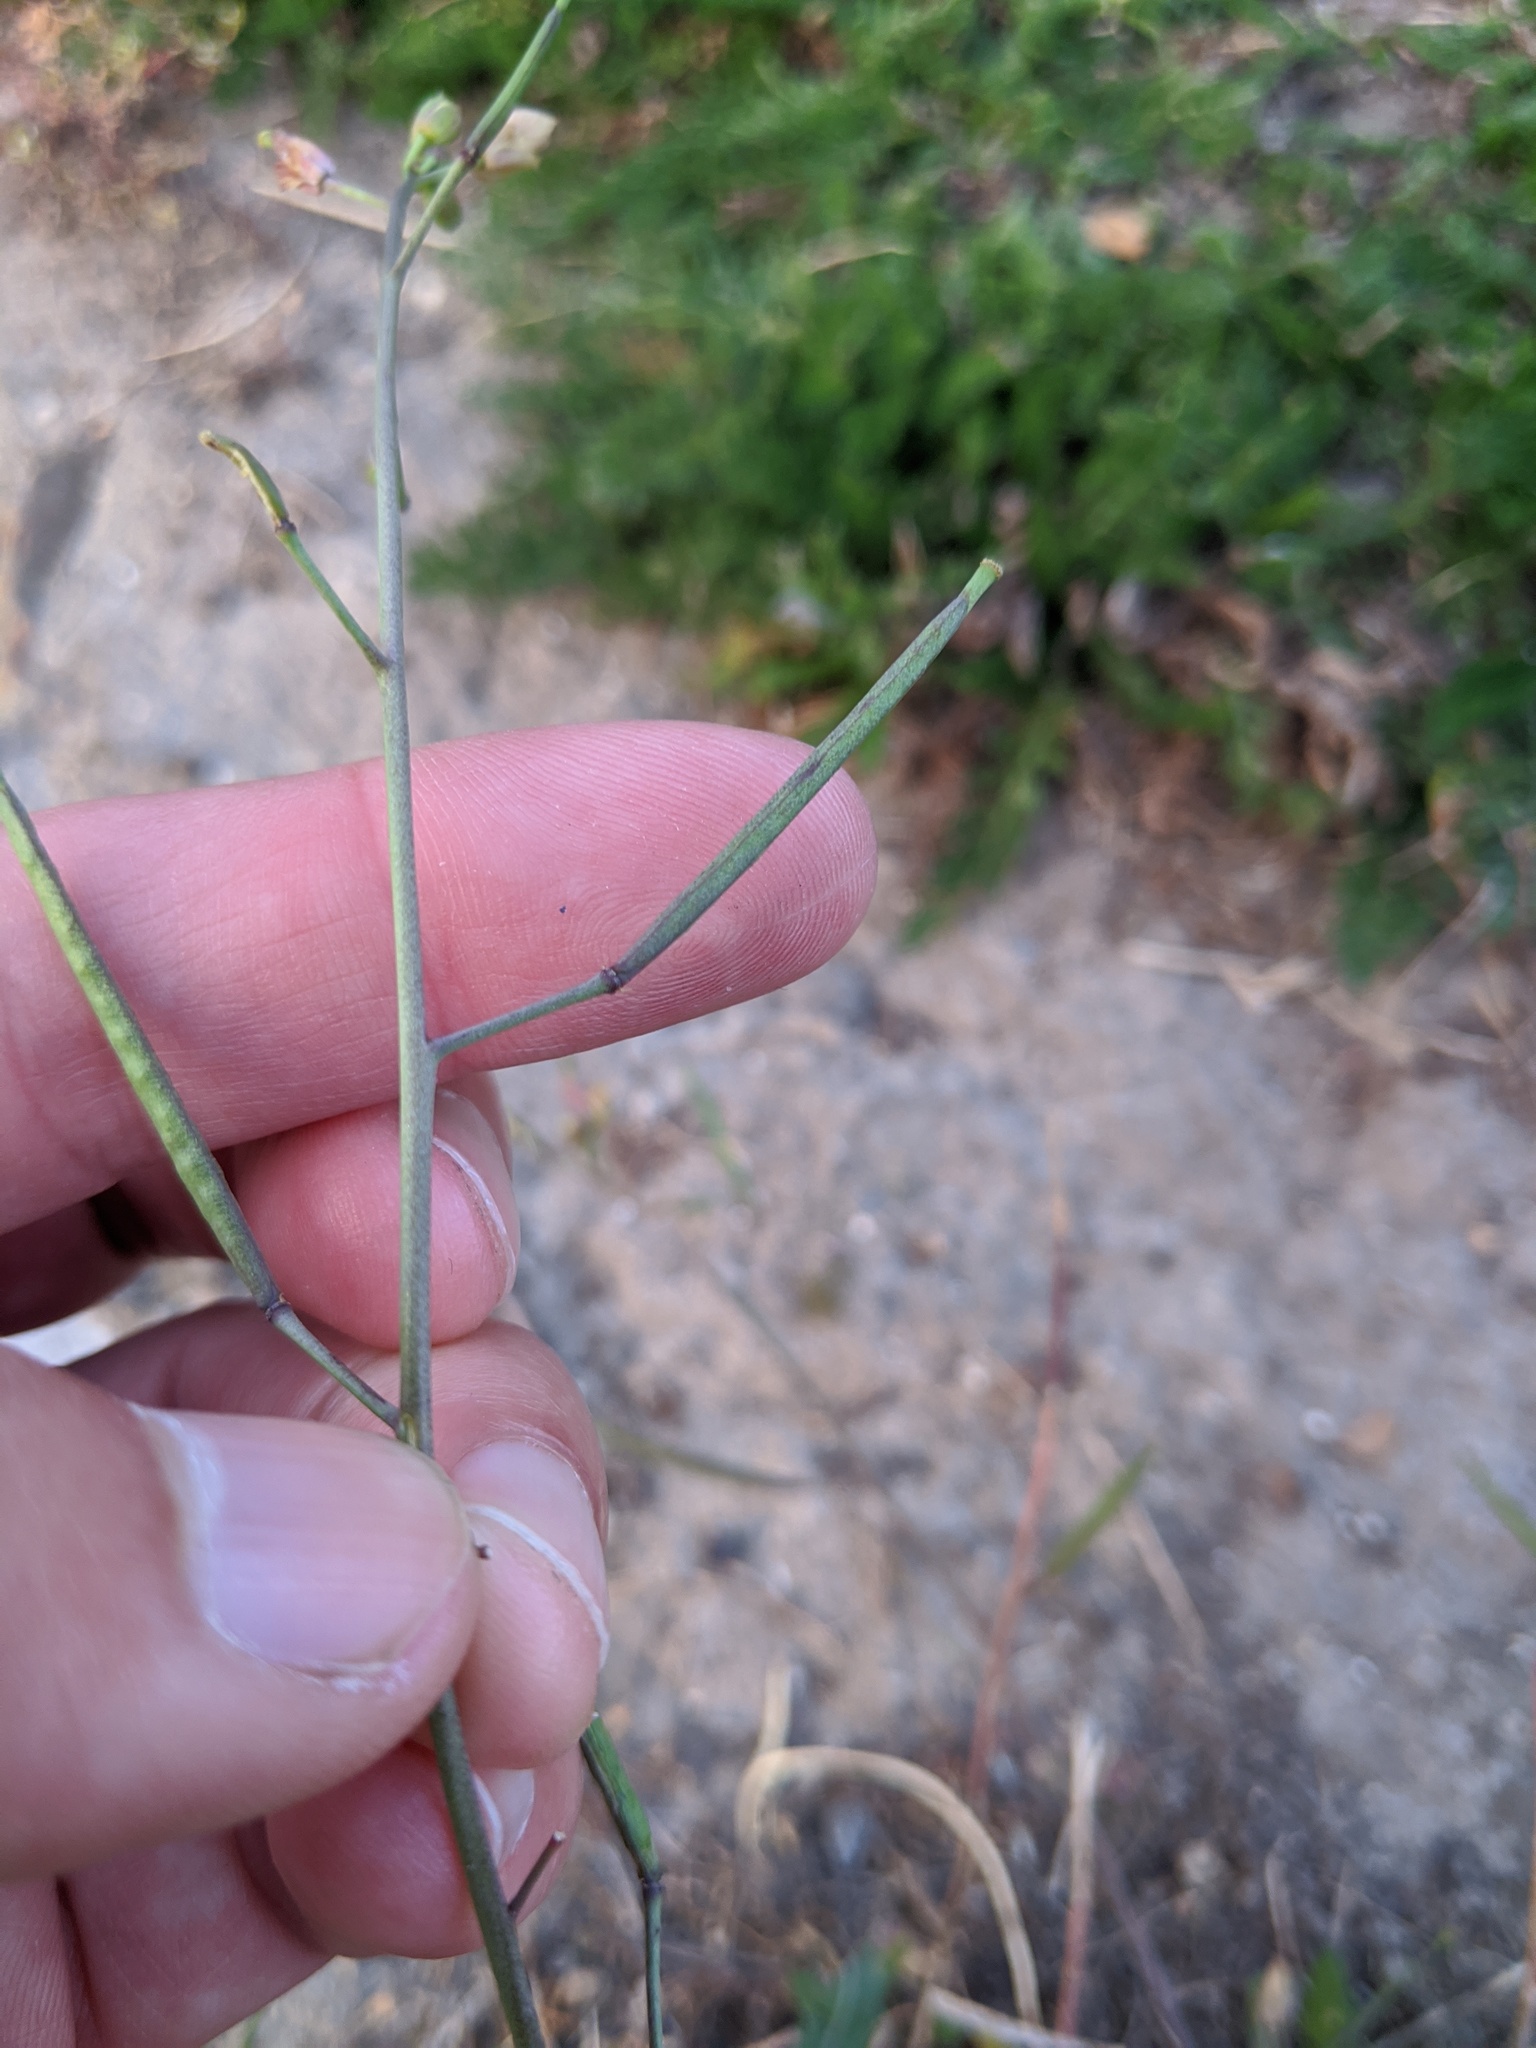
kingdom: Plantae
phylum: Tracheophyta
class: Magnoliopsida
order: Brassicales
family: Brassicaceae
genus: Diplotaxis
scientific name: Diplotaxis muralis
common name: Annual wall-rocket
